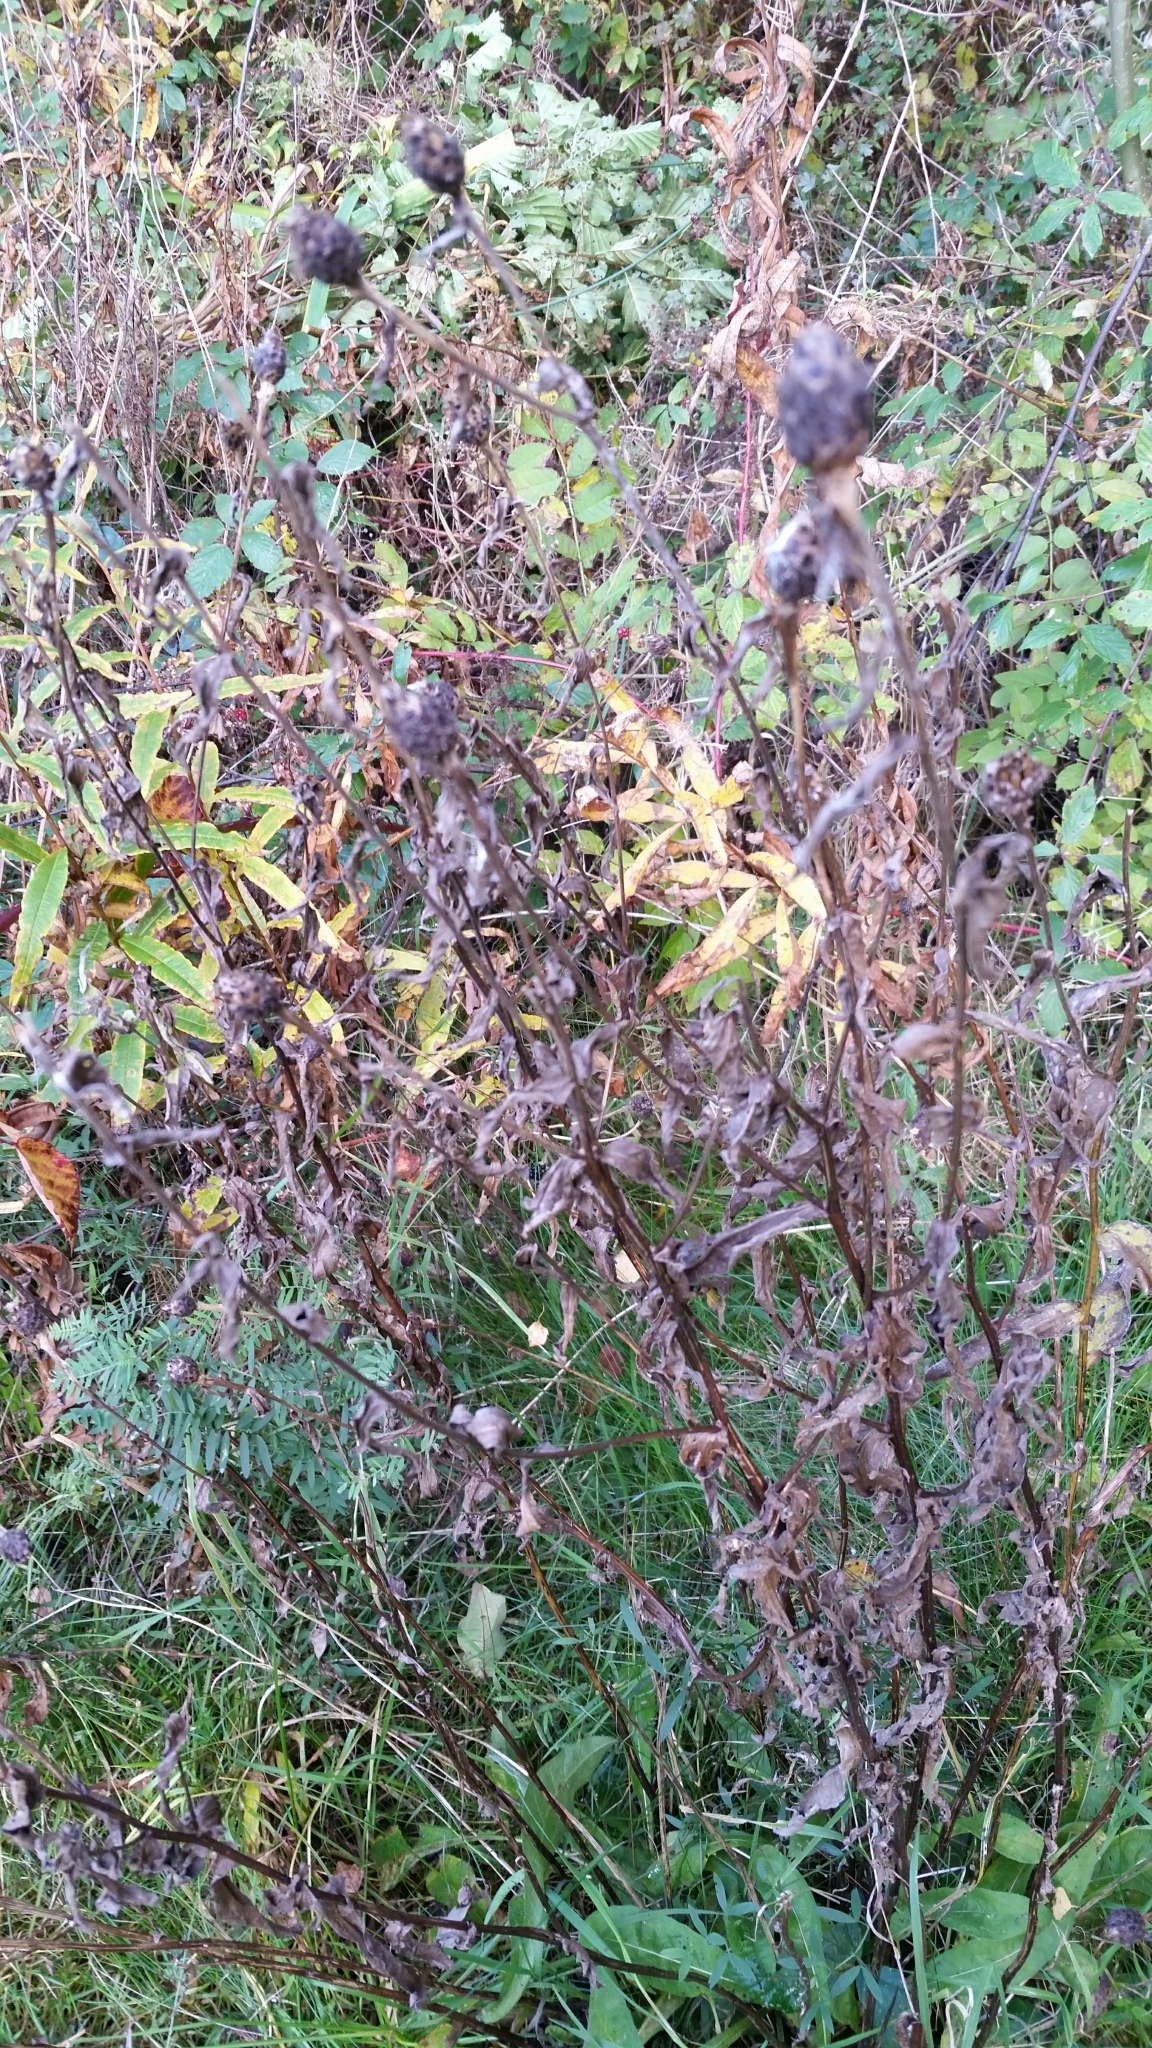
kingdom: Plantae
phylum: Tracheophyta
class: Magnoliopsida
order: Asterales
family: Asteraceae
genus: Centaurea
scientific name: Centaurea nigra
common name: Lesser knapweed
